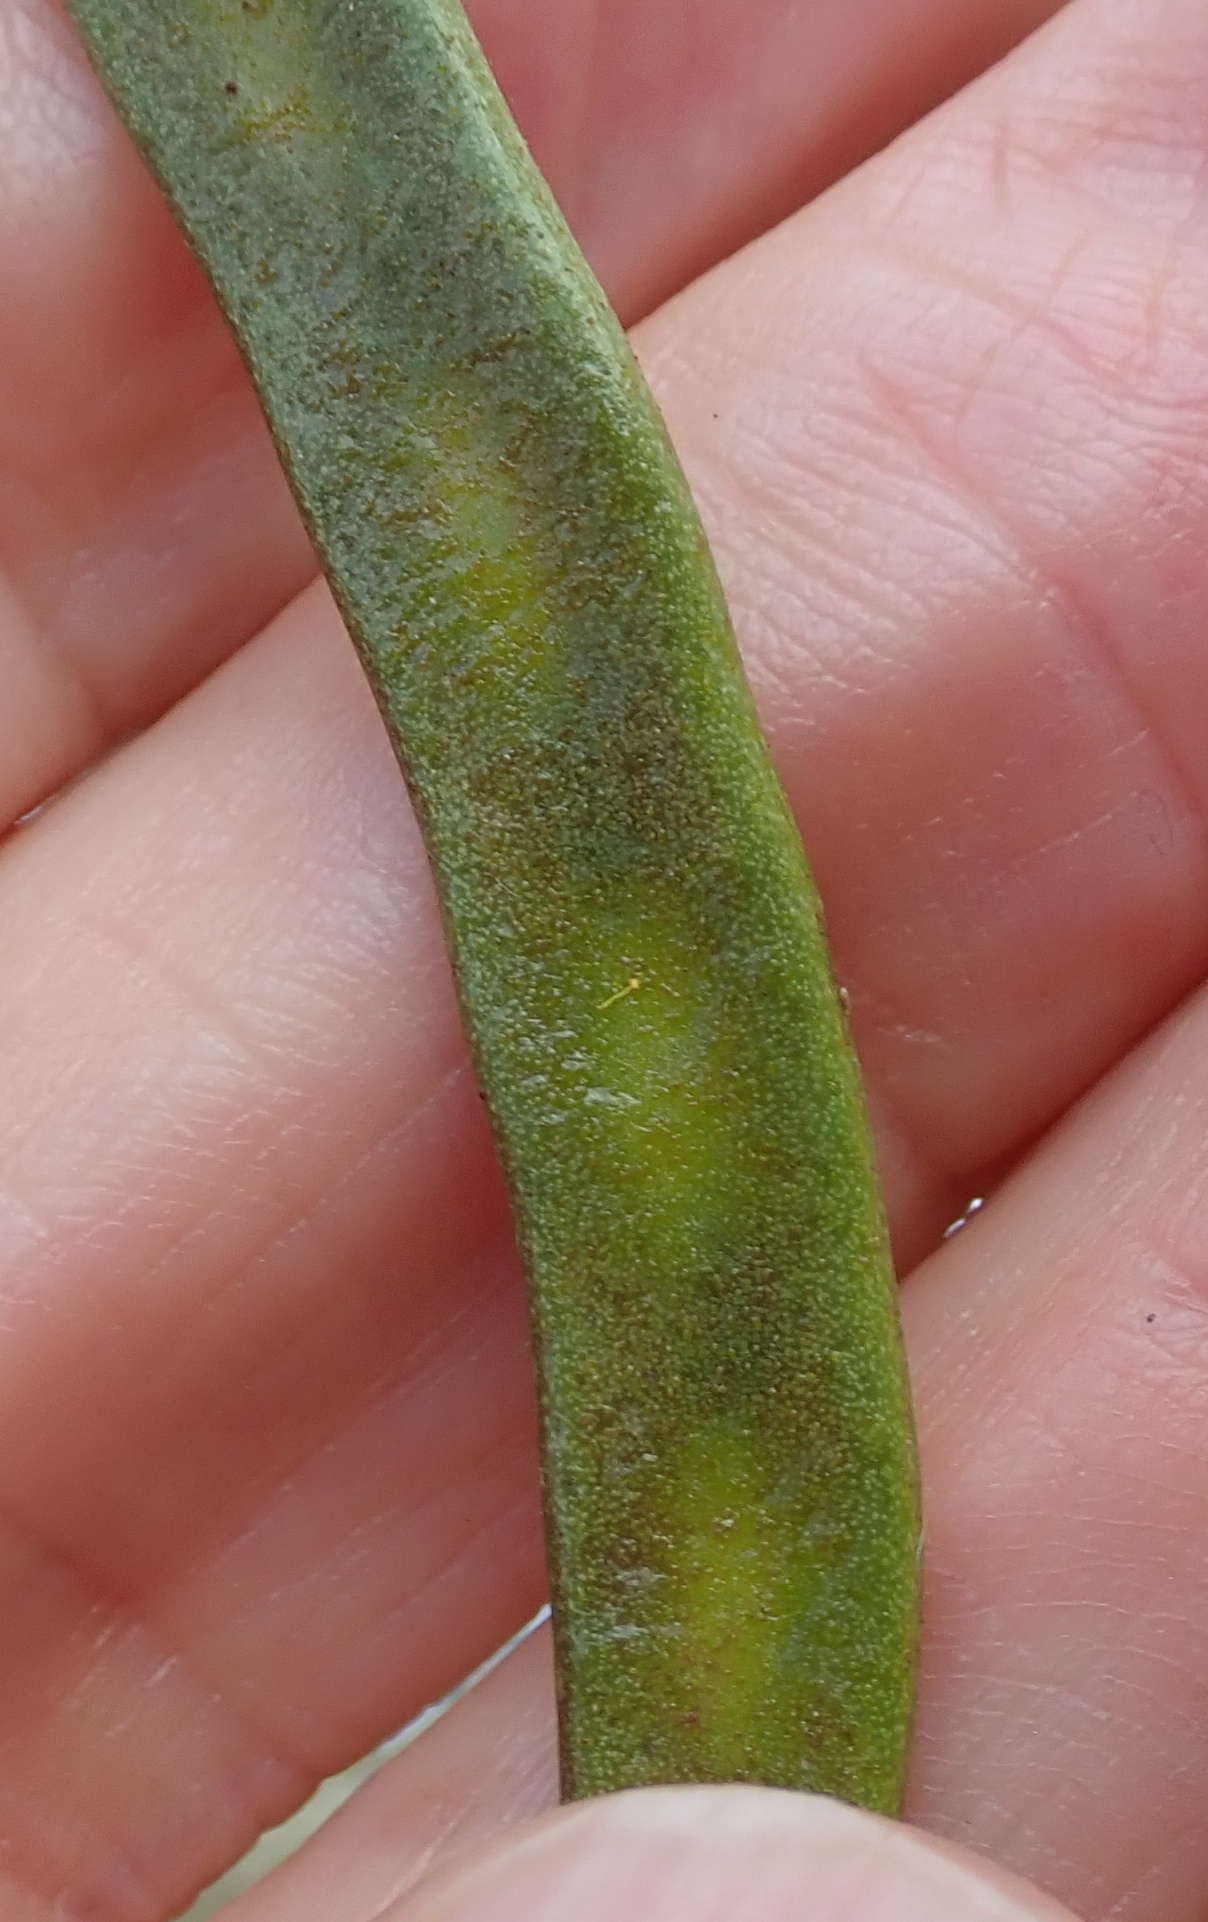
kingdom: Plantae
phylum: Tracheophyta
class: Magnoliopsida
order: Fabales
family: Fabaceae
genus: Vachellia
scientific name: Vachellia karroo
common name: Sweet thorn
